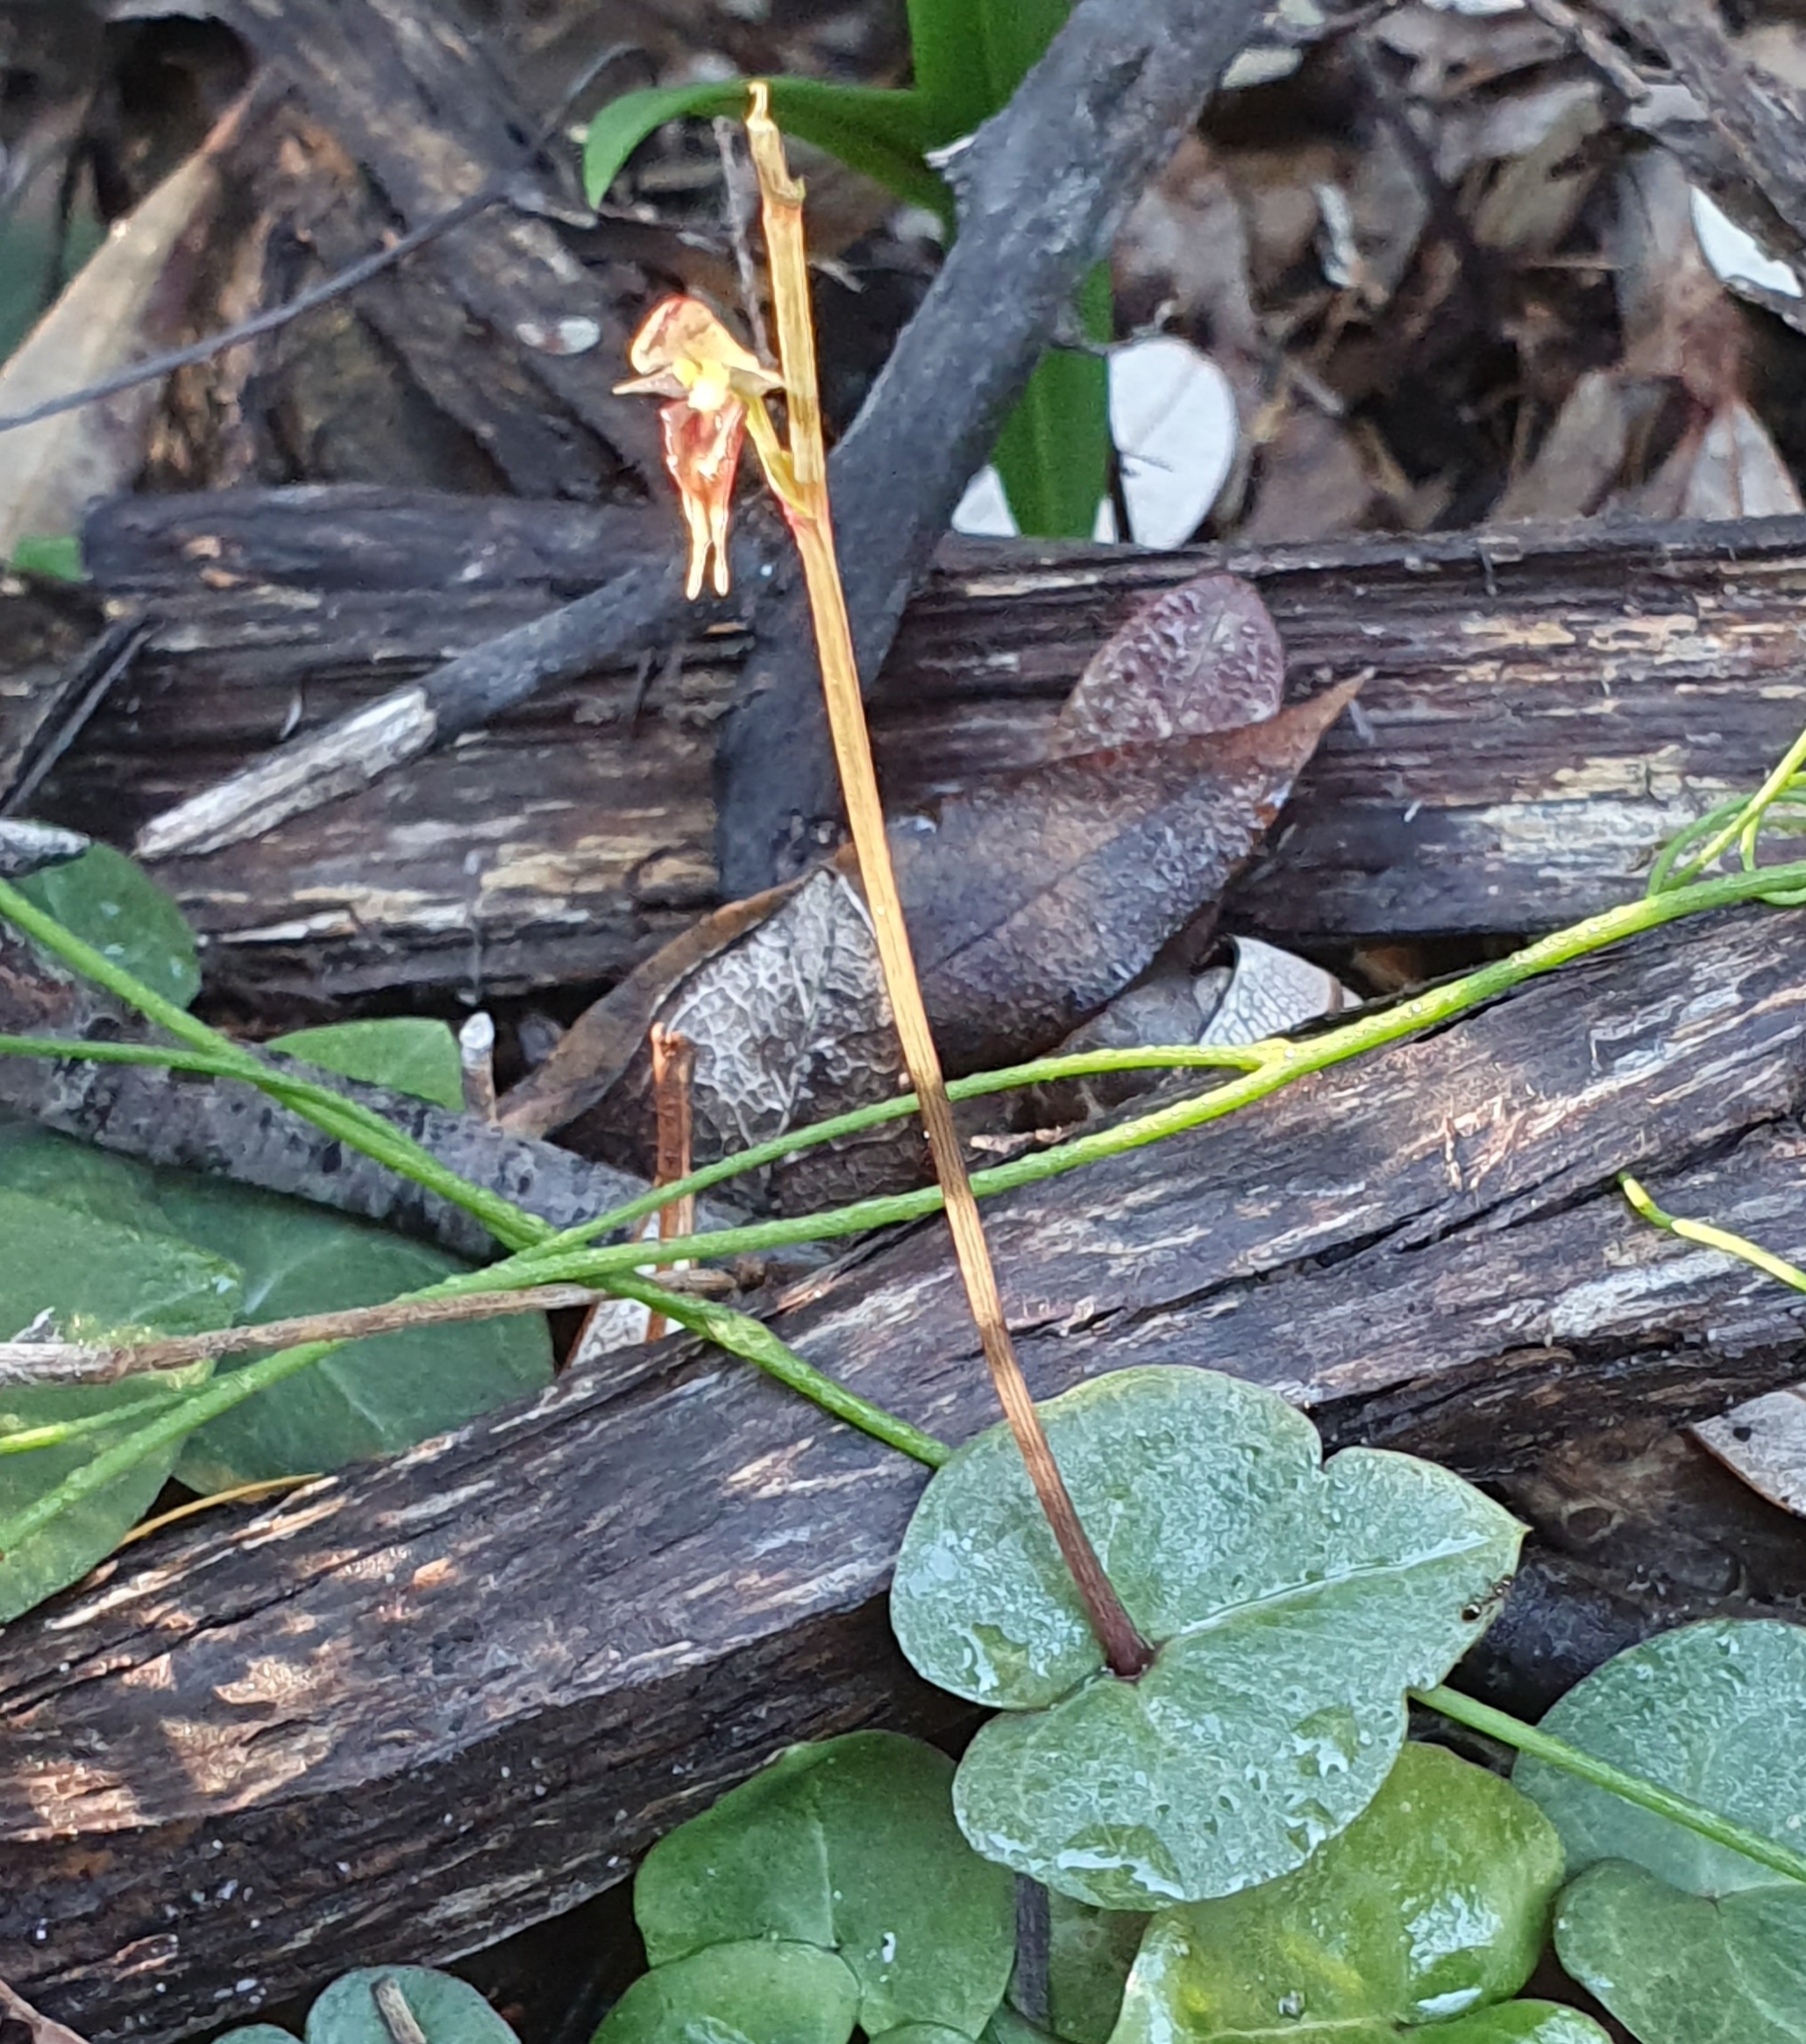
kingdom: Plantae
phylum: Tracheophyta
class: Liliopsida
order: Asparagales
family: Orchidaceae
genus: Acianthus
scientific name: Acianthus fornicatus
